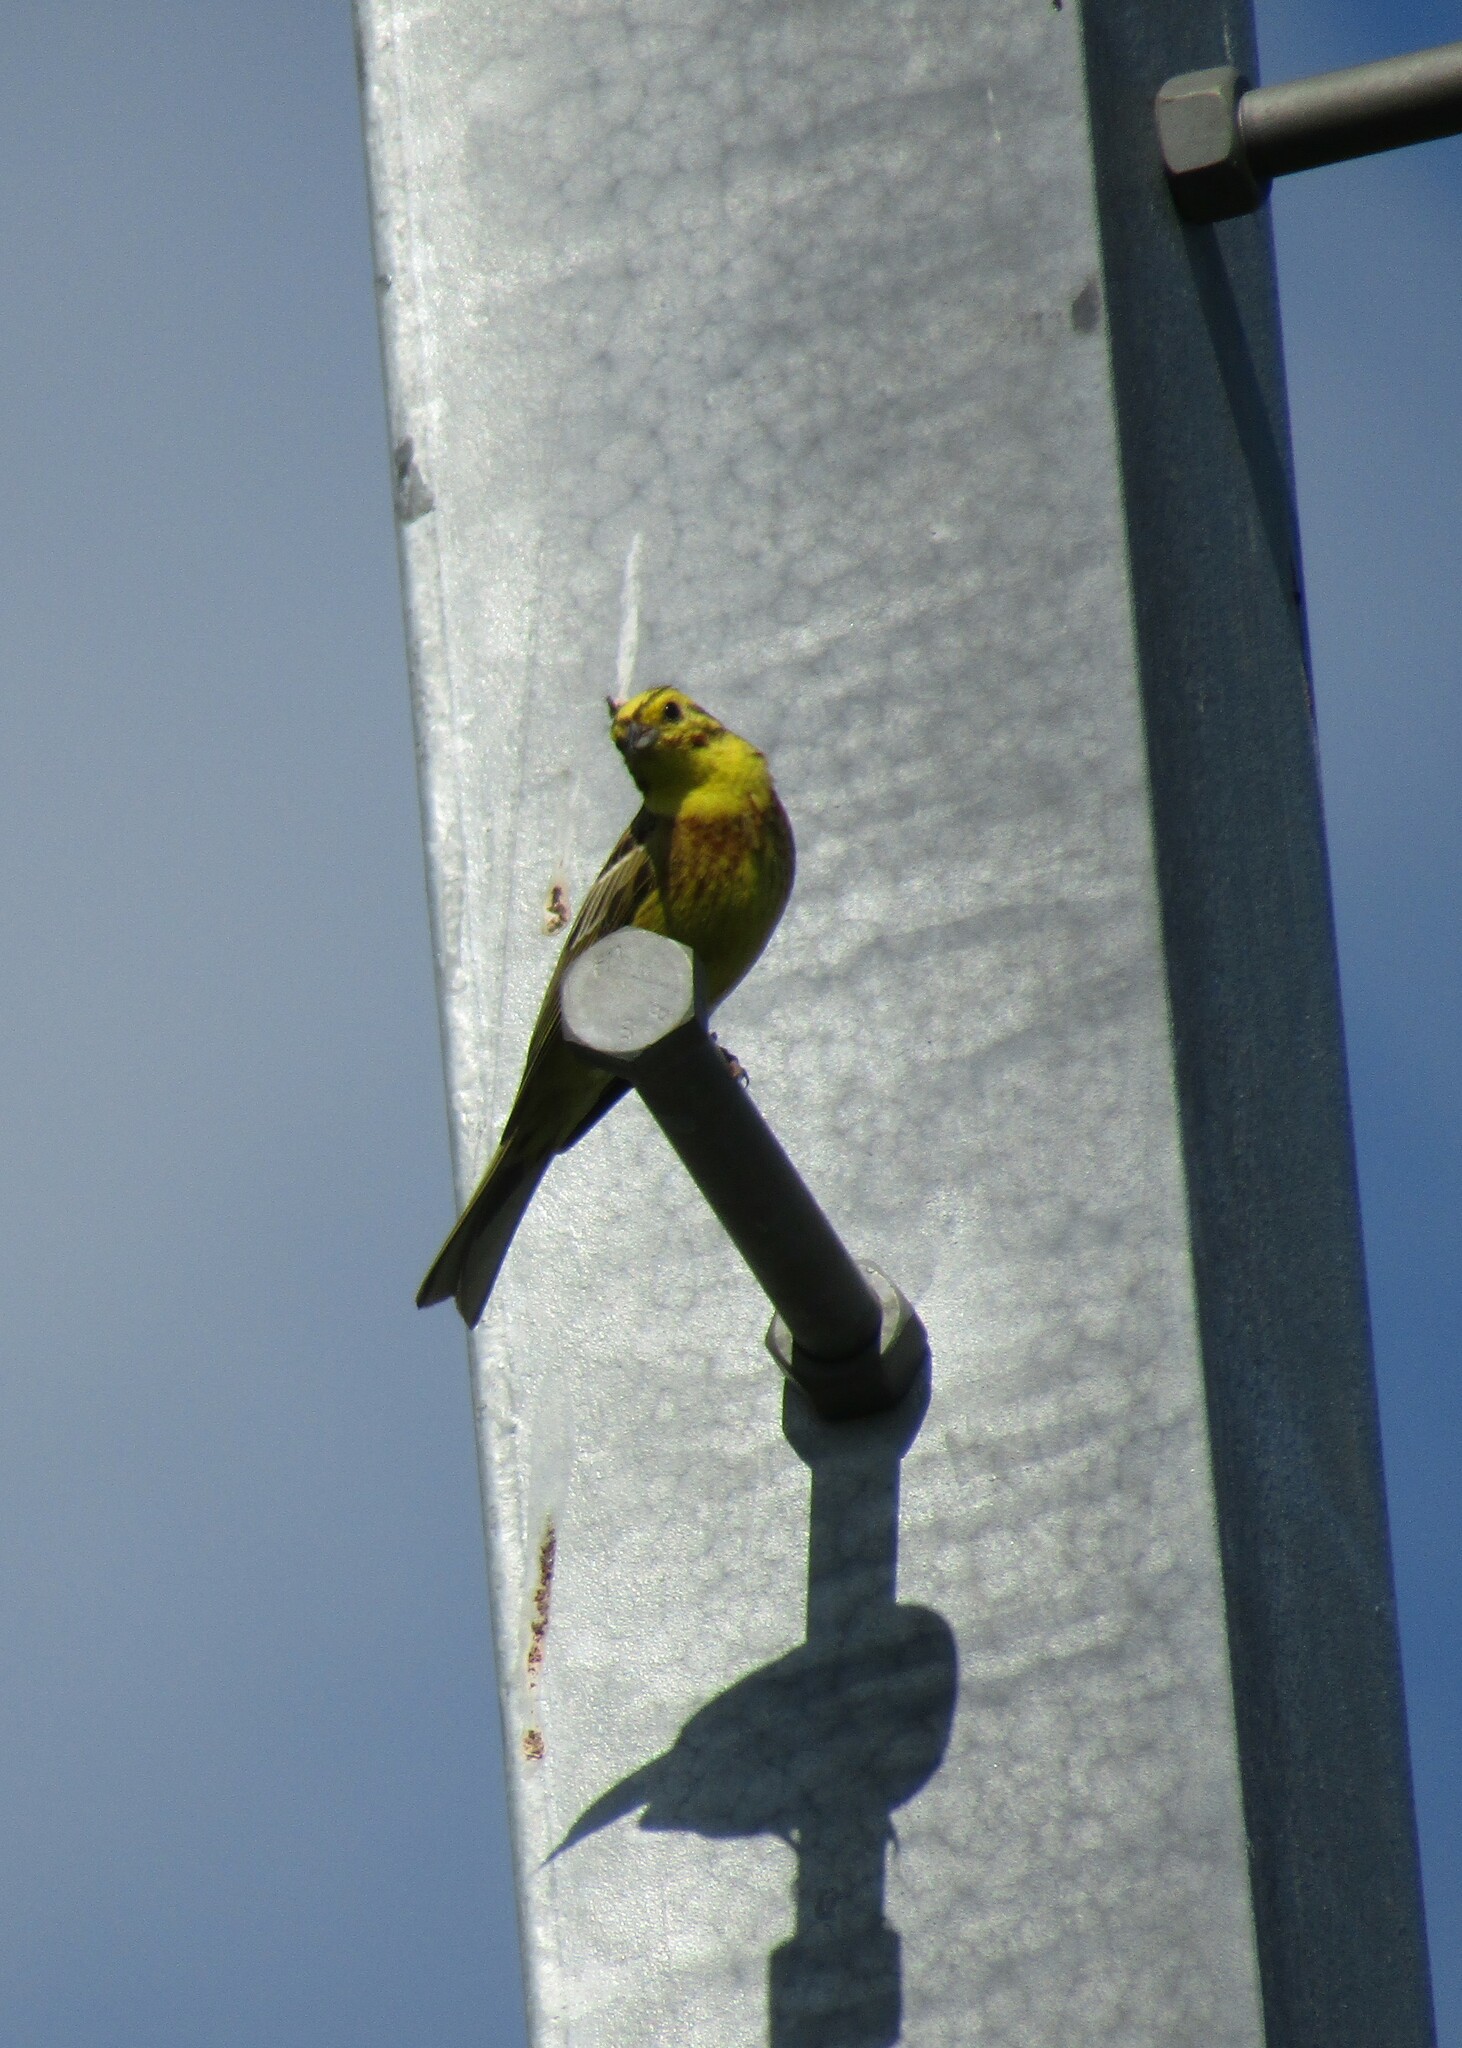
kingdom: Animalia
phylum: Chordata
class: Aves
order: Passeriformes
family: Emberizidae
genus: Emberiza
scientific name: Emberiza citrinella
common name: Yellowhammer
